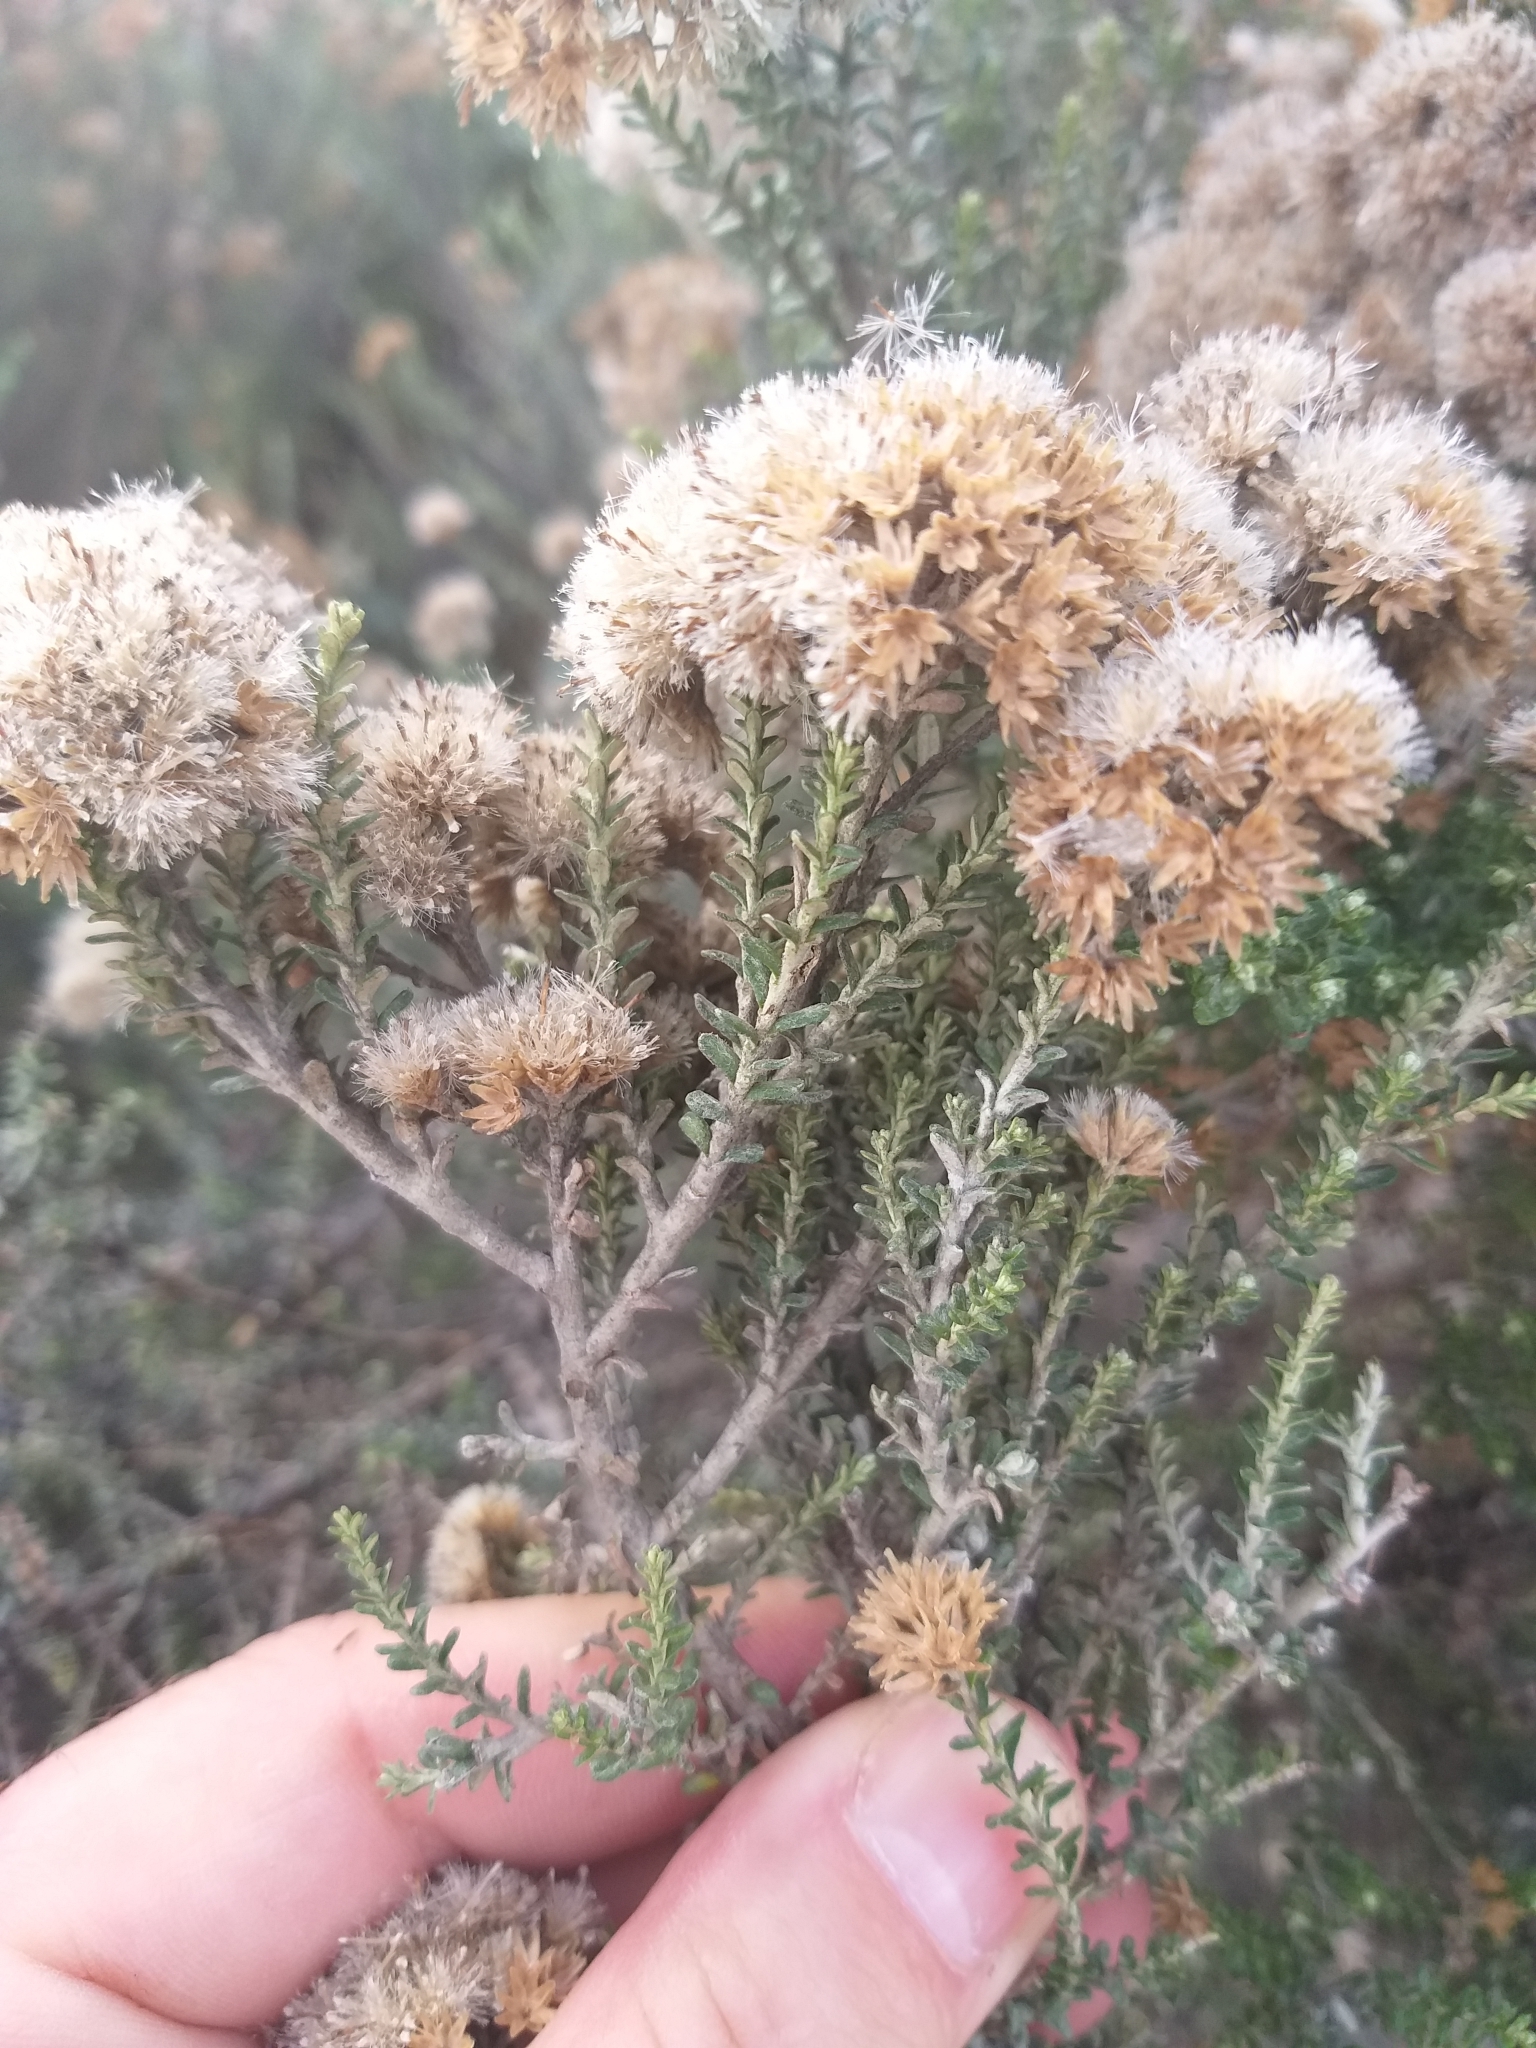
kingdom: Plantae
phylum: Tracheophyta
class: Magnoliopsida
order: Asterales
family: Asteraceae
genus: Ozothamnus
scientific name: Ozothamnus leptophyllus
